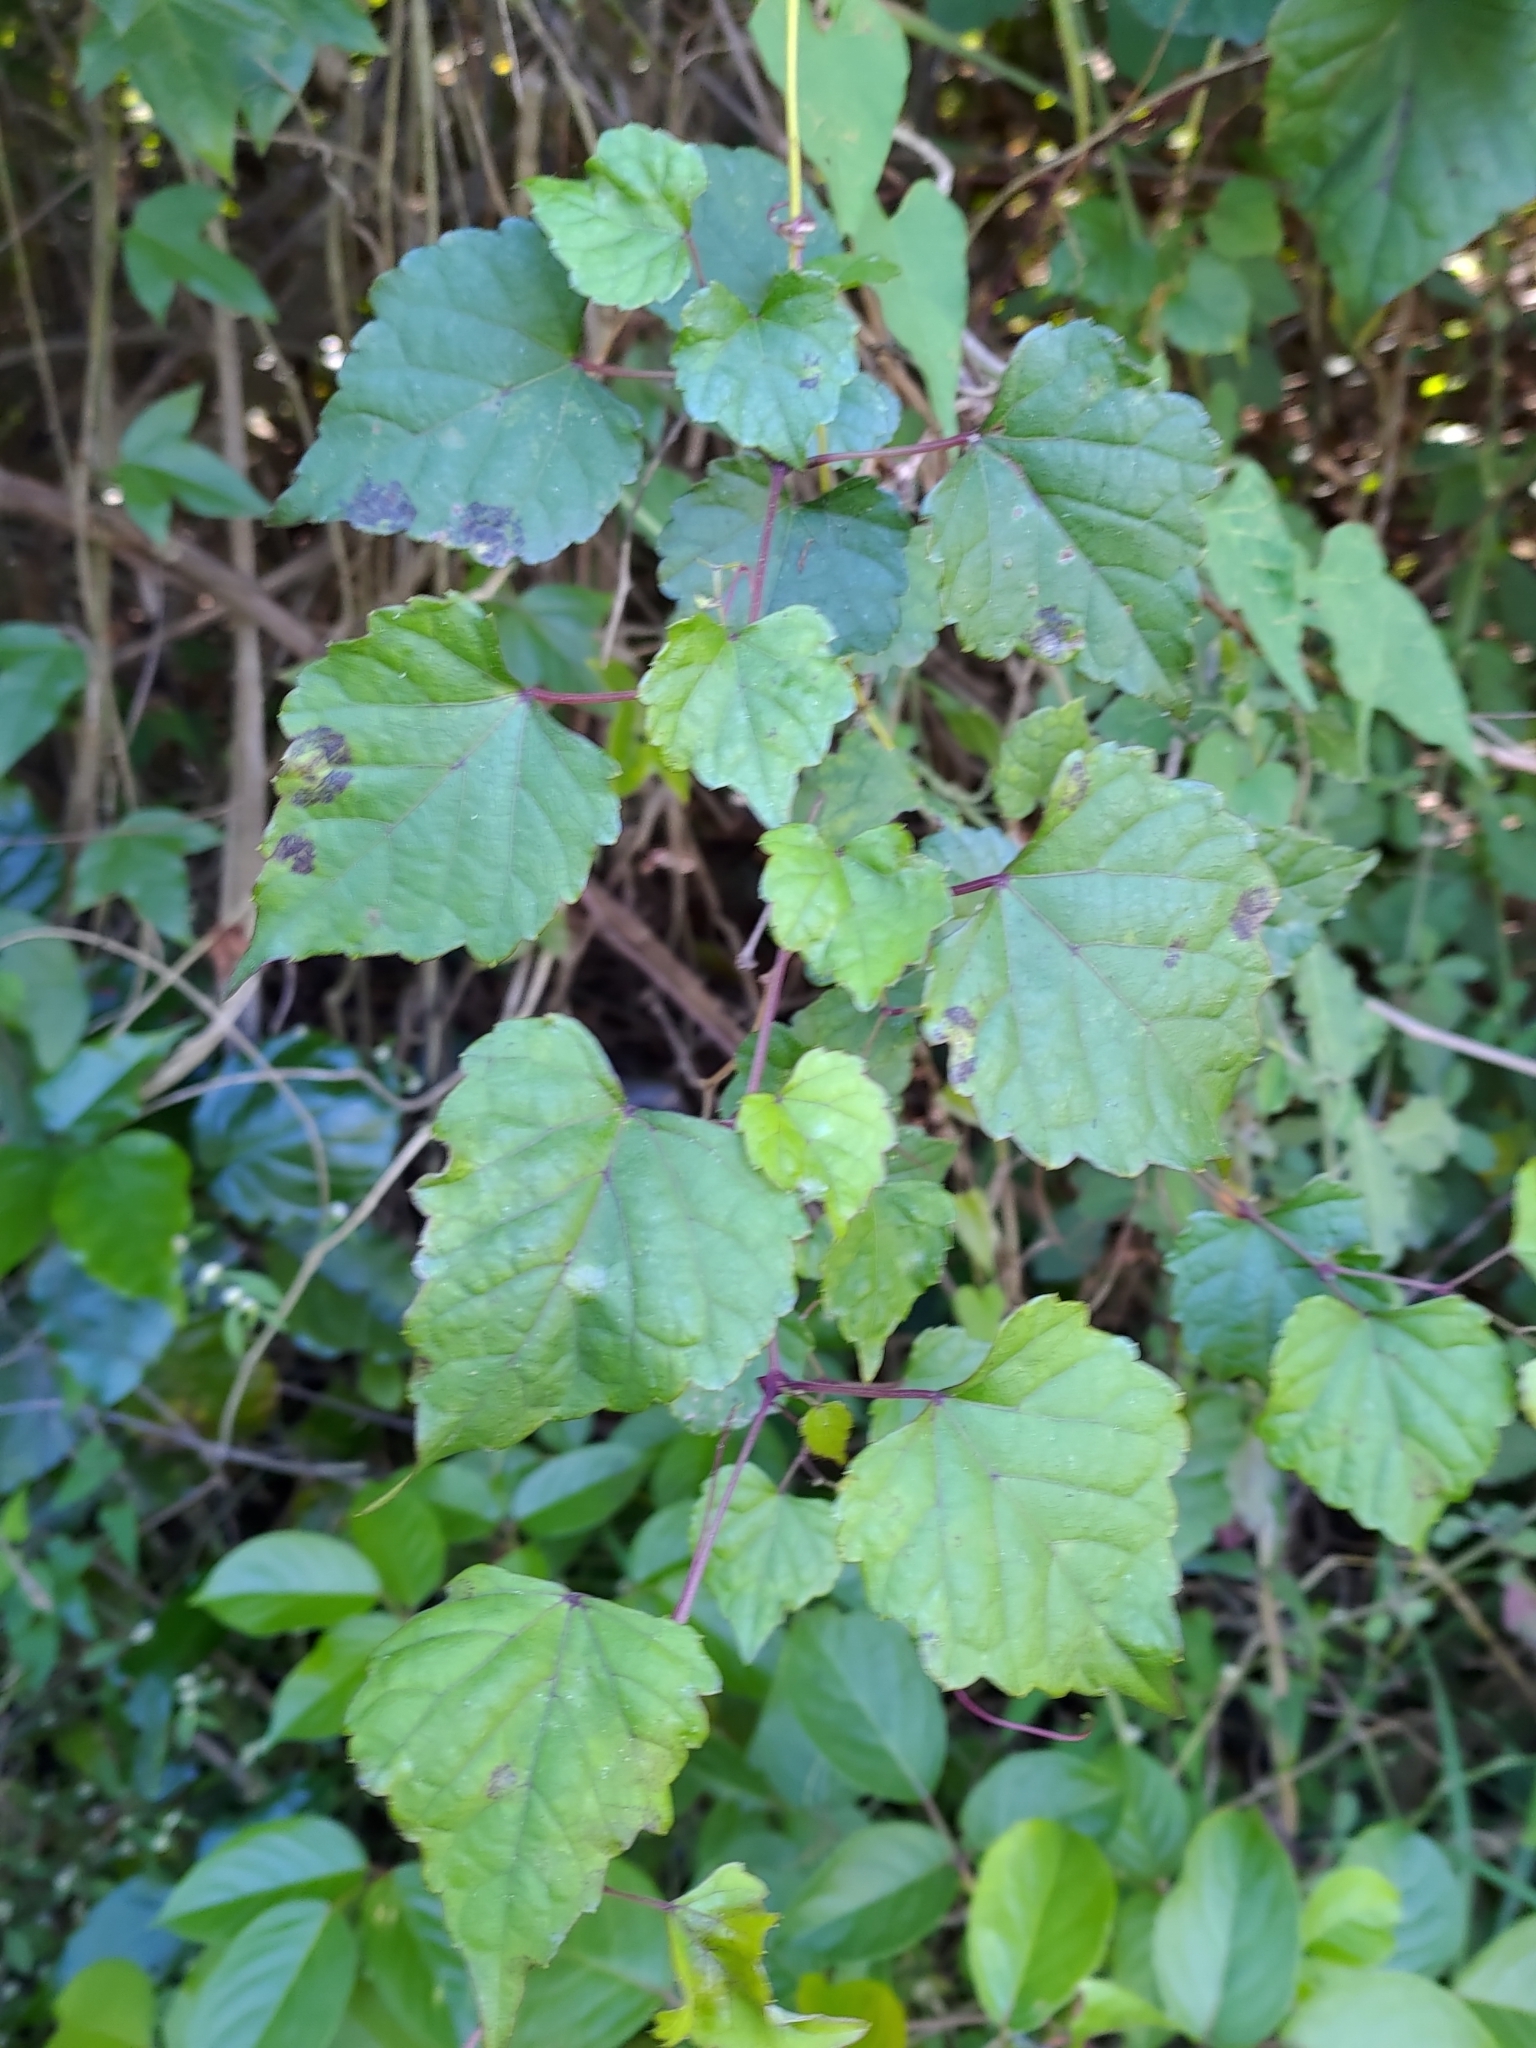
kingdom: Plantae
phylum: Tracheophyta
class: Magnoliopsida
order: Vitales
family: Vitaceae
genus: Ampelopsis
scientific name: Ampelopsis glandulosa
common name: Amur peppervine
